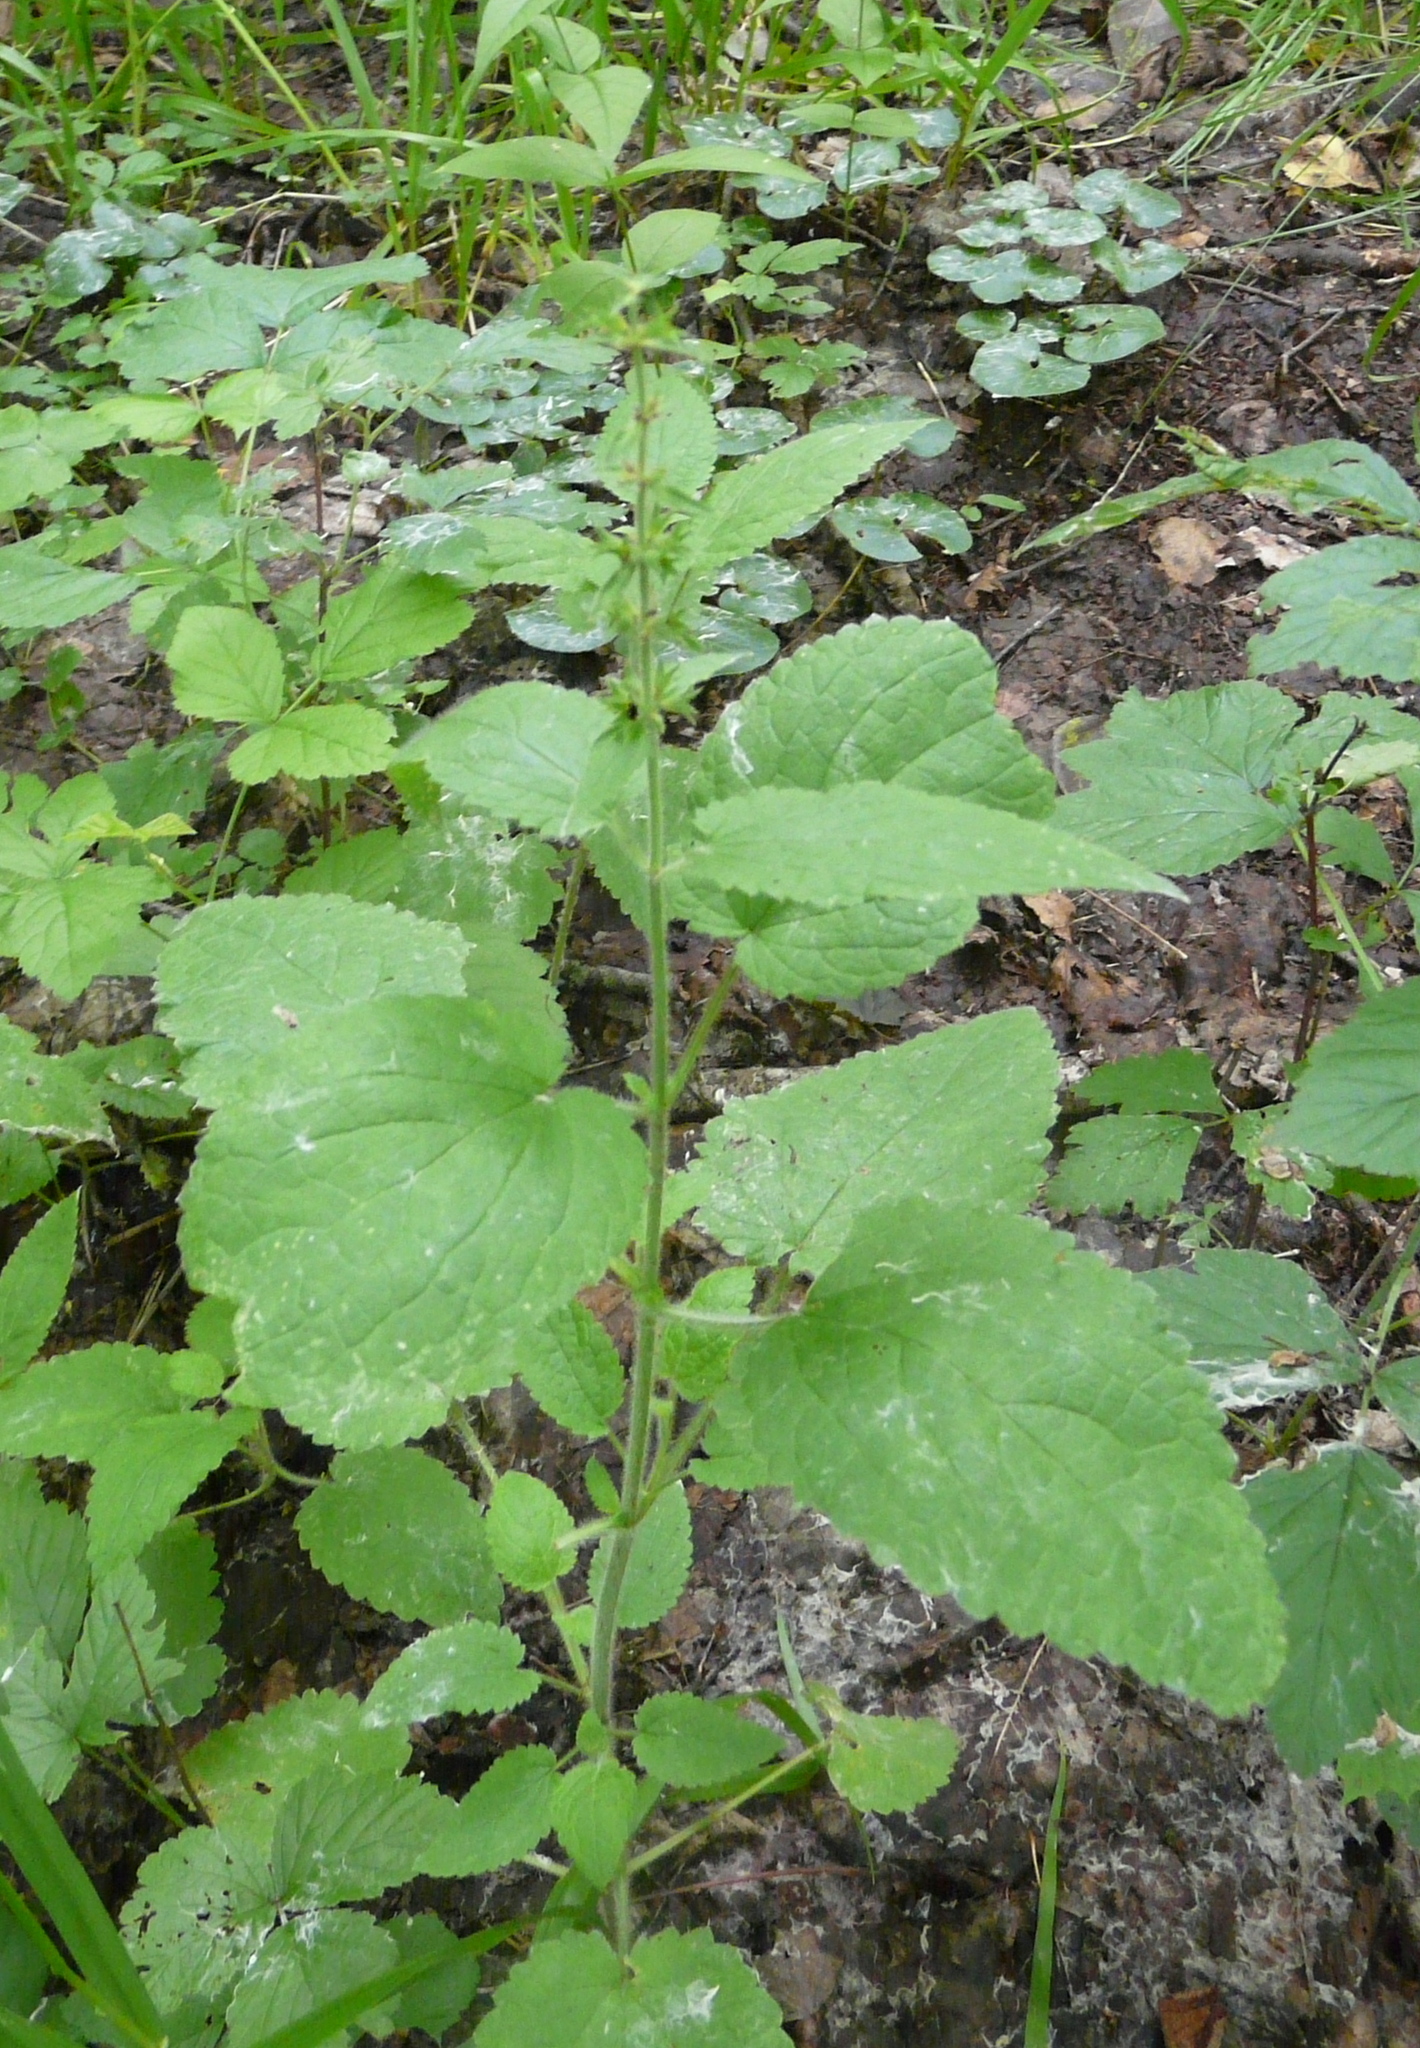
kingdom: Plantae
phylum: Tracheophyta
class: Magnoliopsida
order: Lamiales
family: Lamiaceae
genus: Stachys
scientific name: Stachys sylvatica
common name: Hedge woundwort
